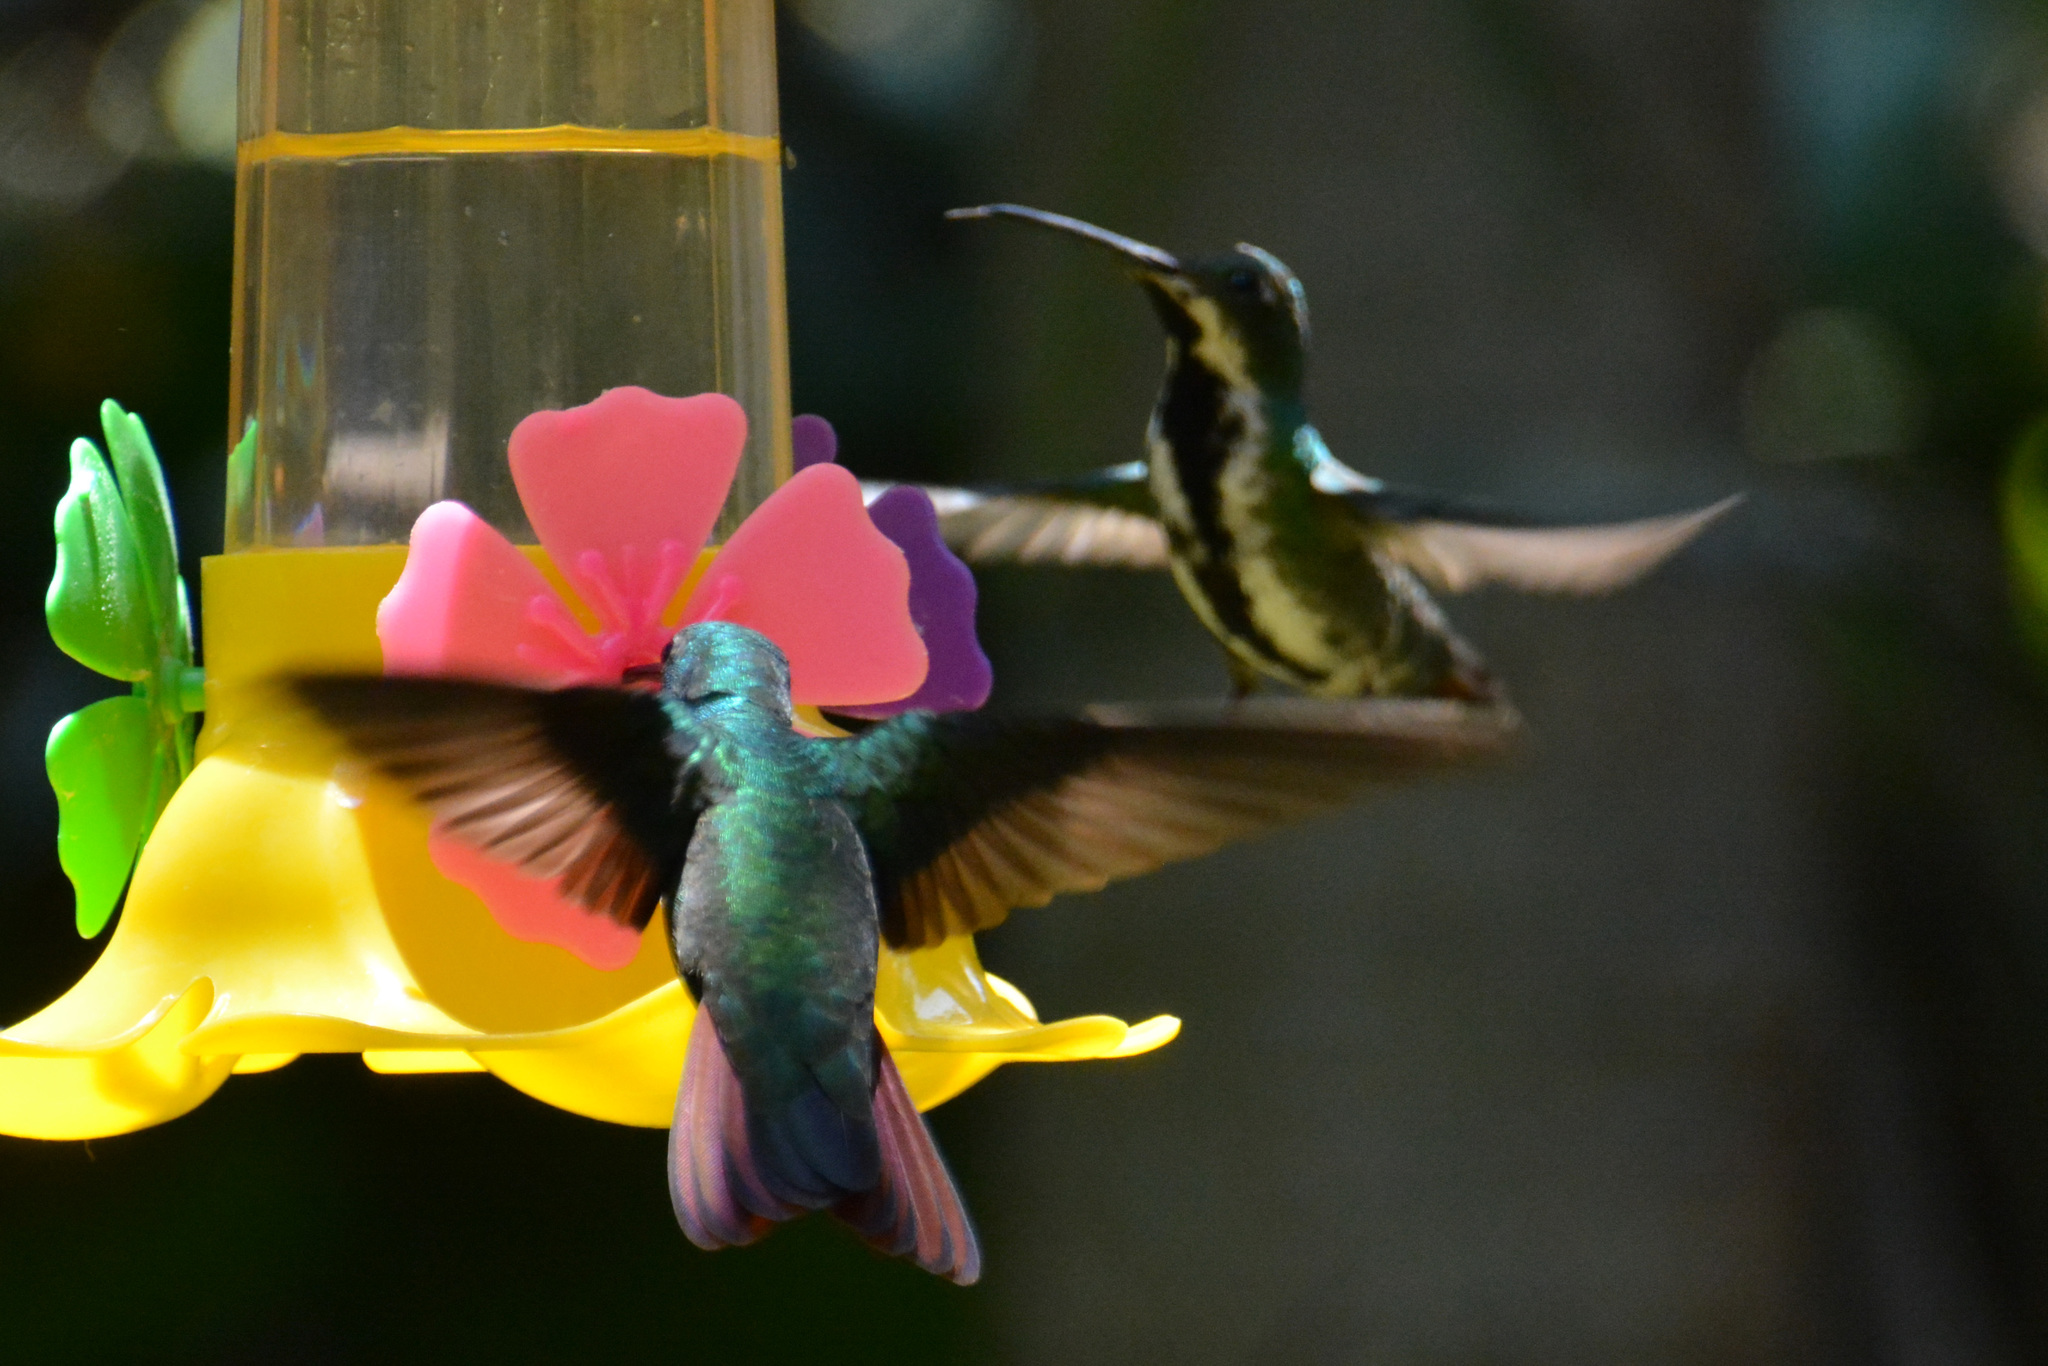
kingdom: Animalia
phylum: Chordata
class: Aves
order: Apodiformes
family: Trochilidae
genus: Anthracothorax
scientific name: Anthracothorax nigricollis
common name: Black-throated mango
